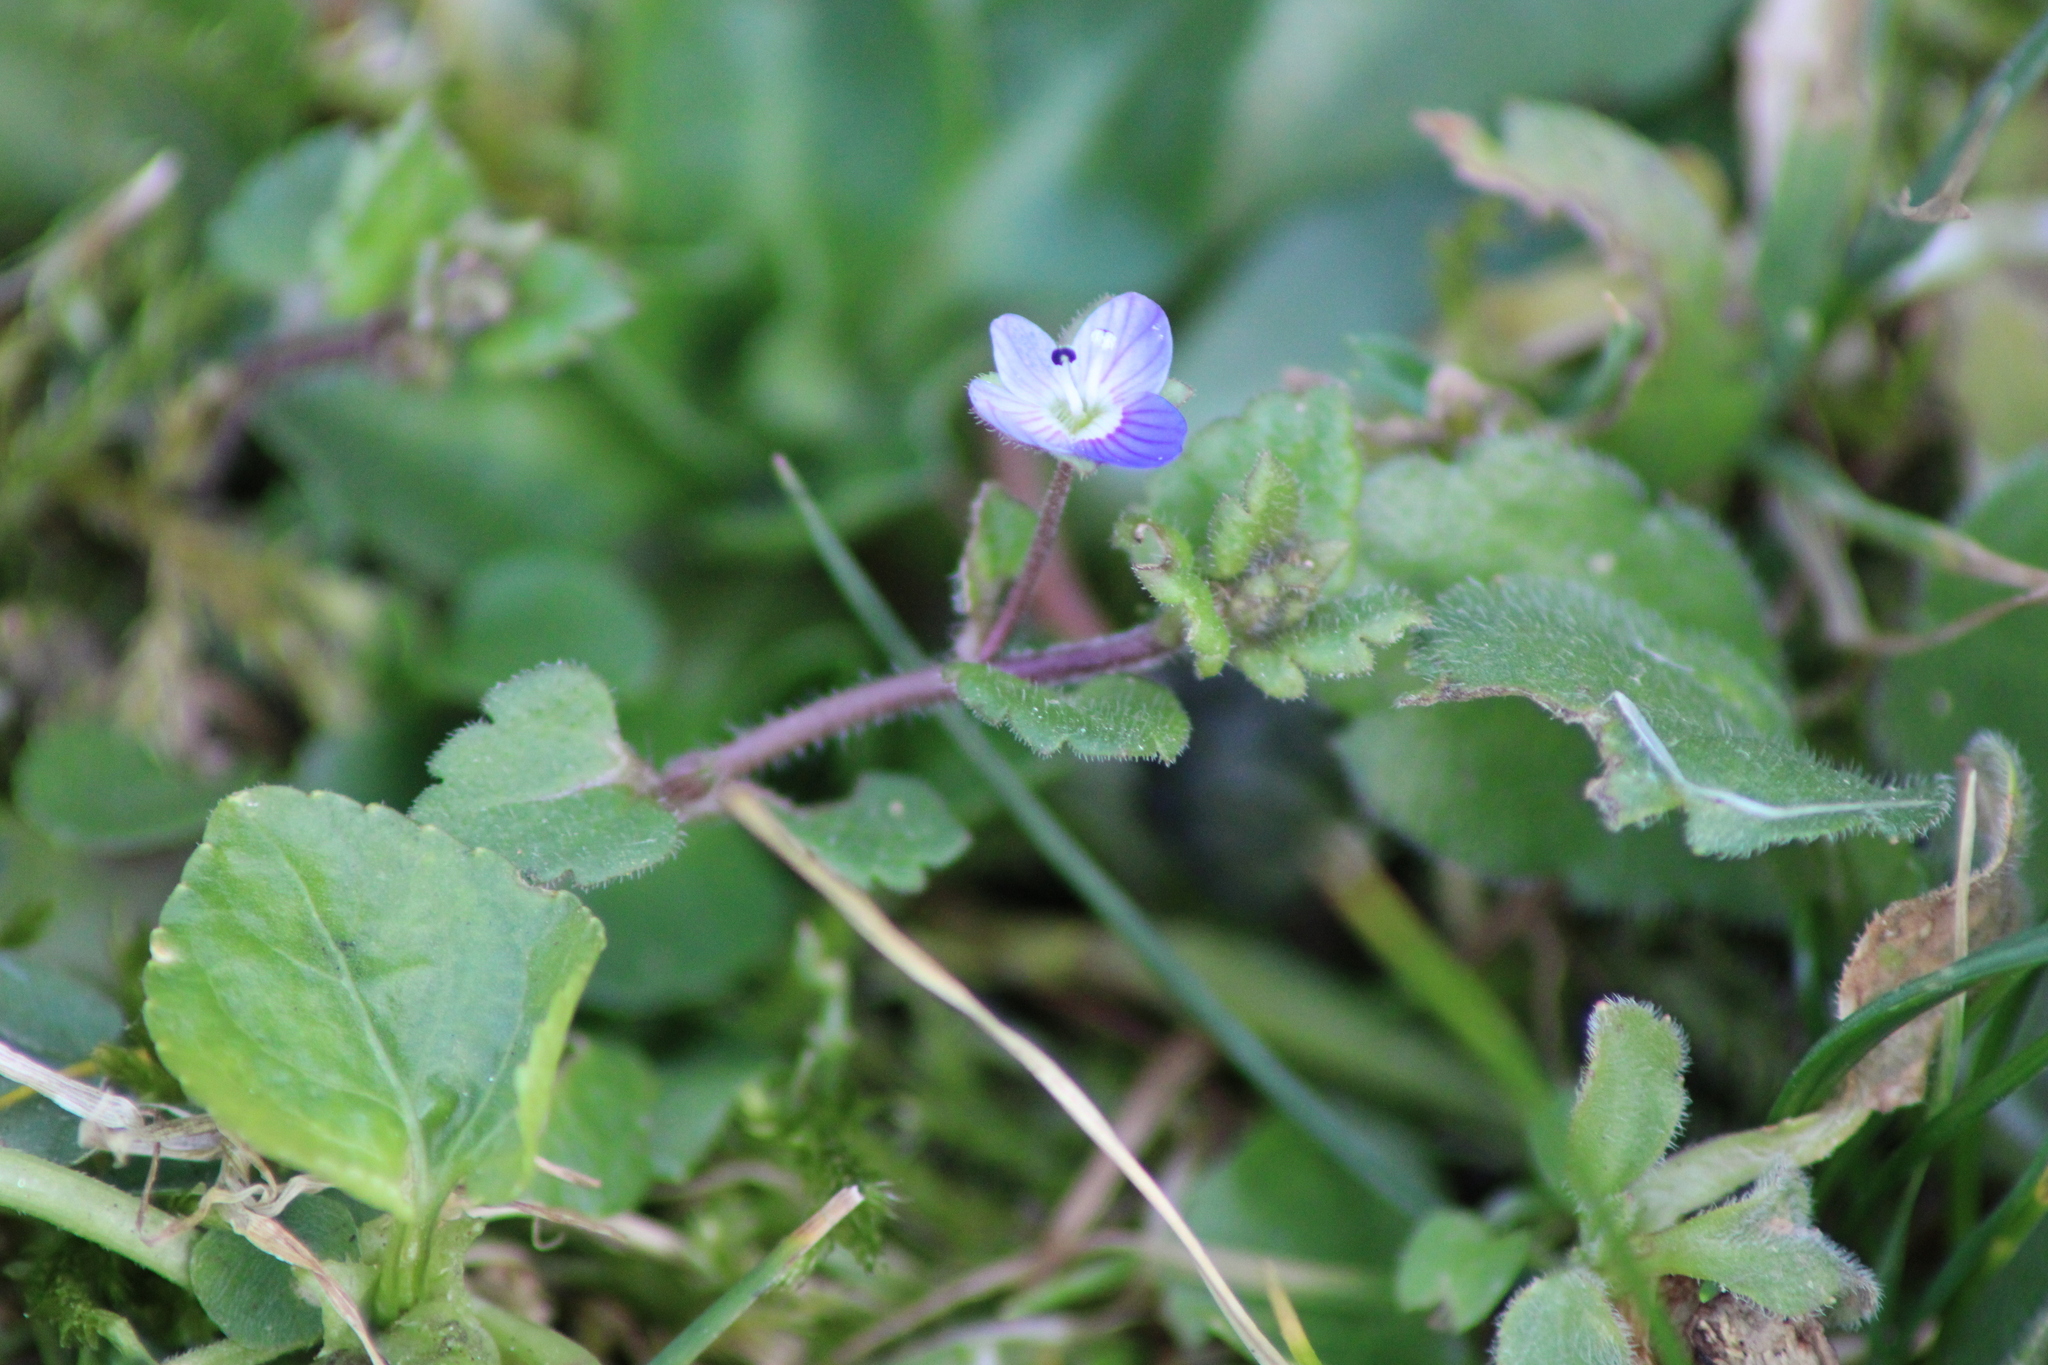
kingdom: Plantae
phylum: Tracheophyta
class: Magnoliopsida
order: Lamiales
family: Plantaginaceae
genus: Veronica
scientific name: Veronica persica
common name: Common field-speedwell
